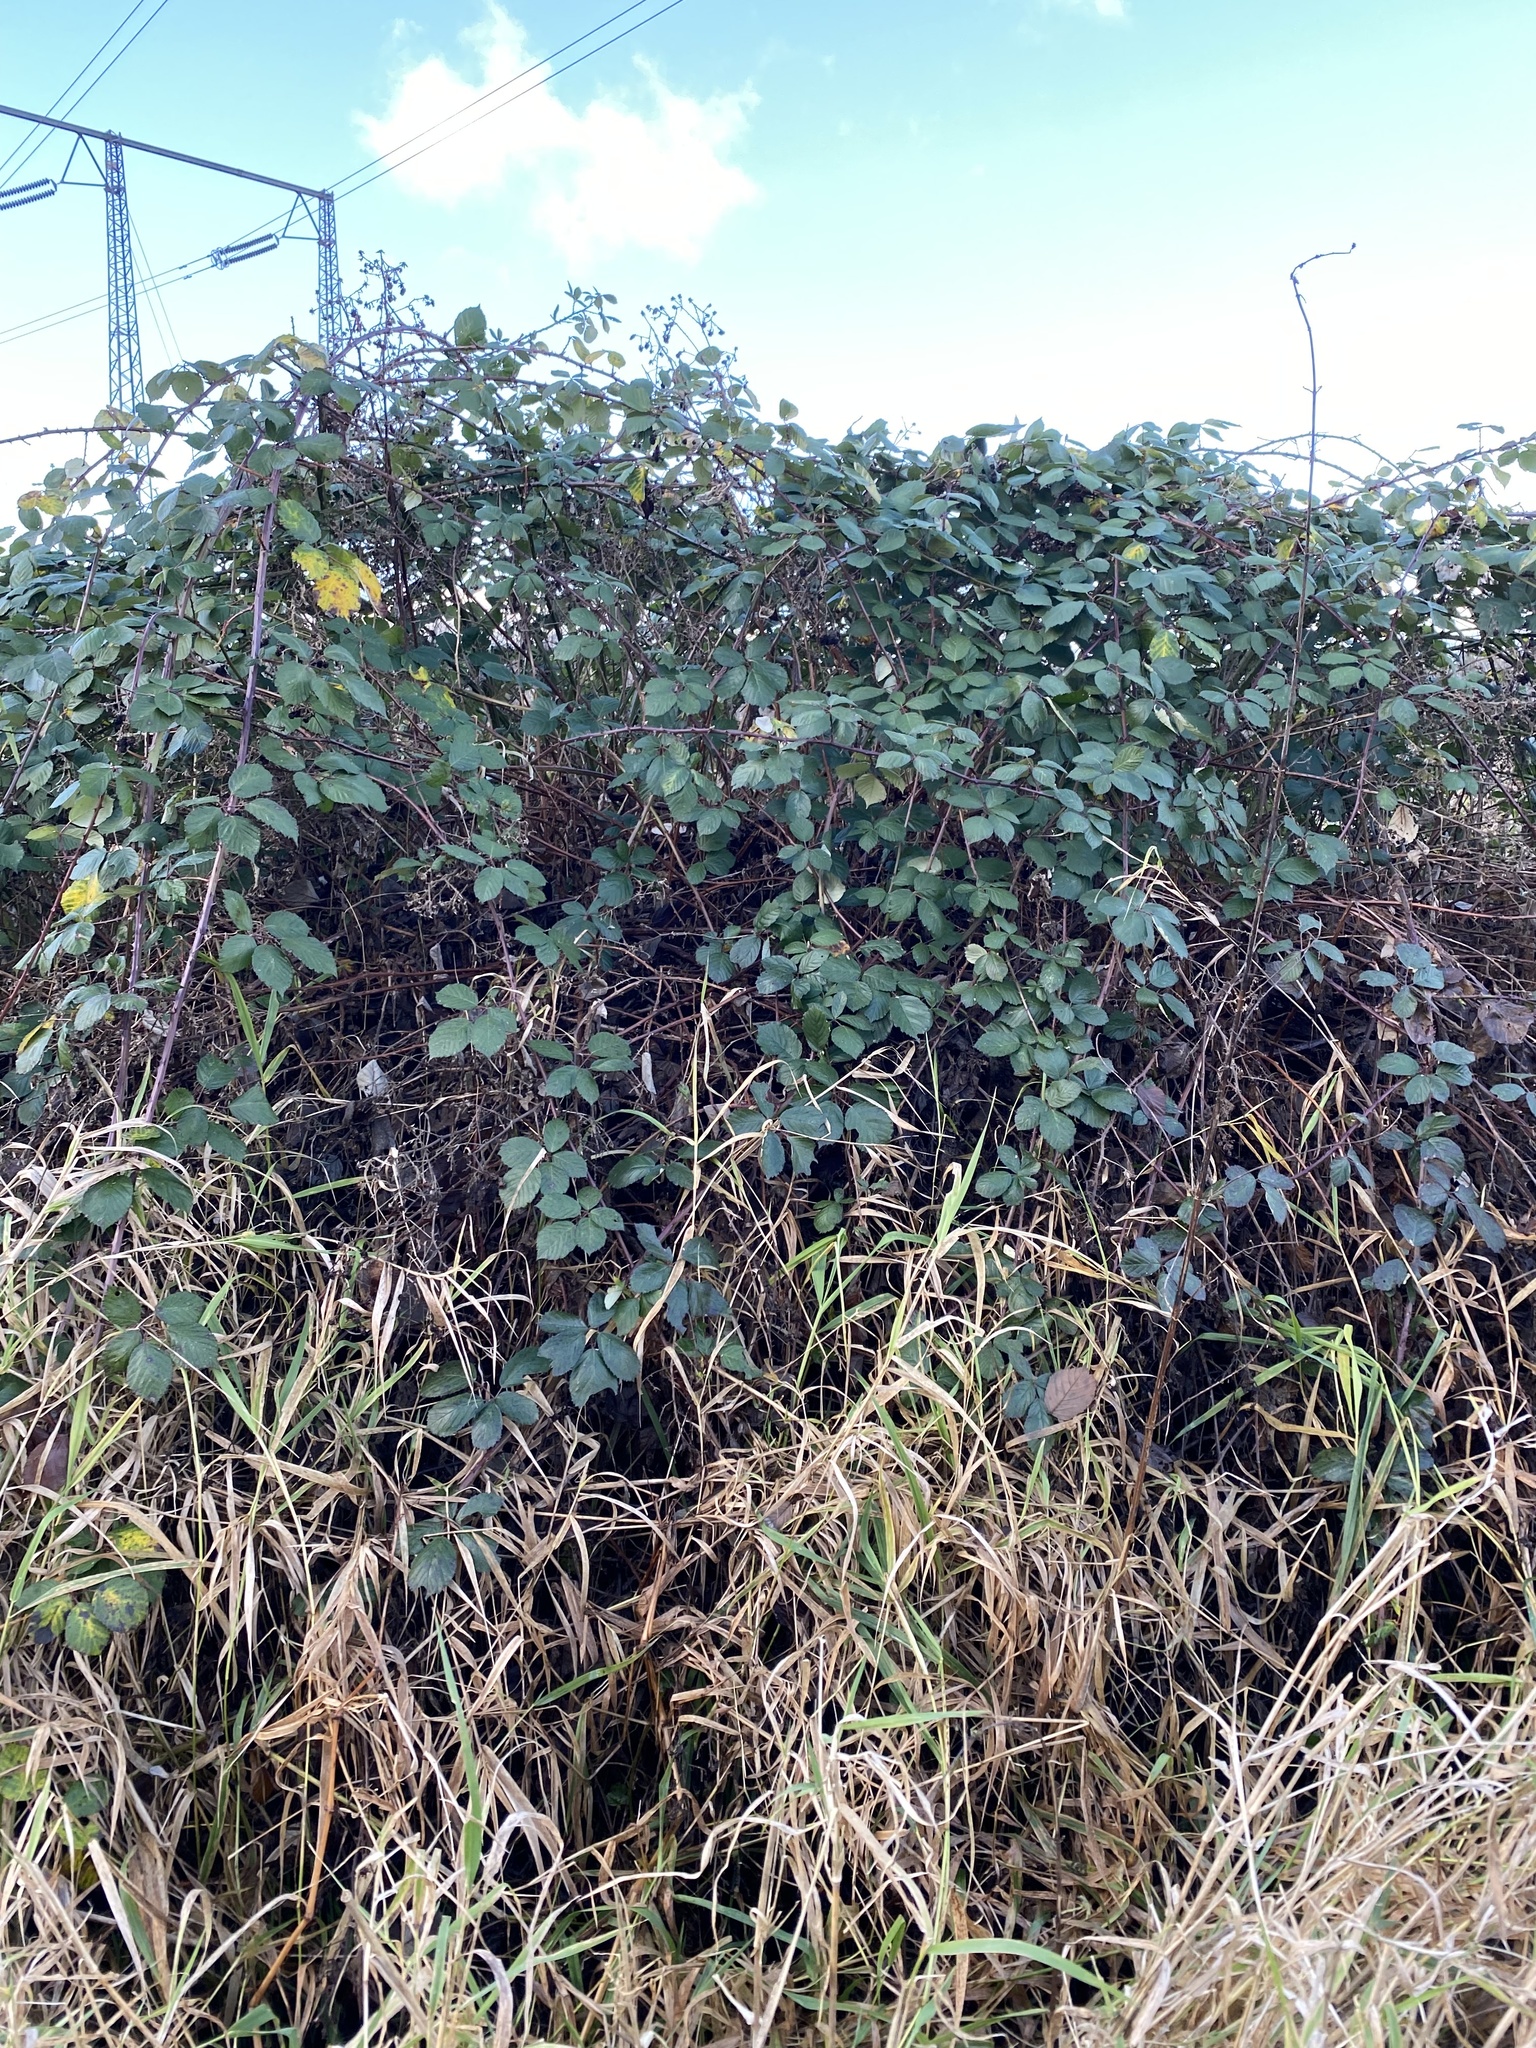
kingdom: Plantae
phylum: Tracheophyta
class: Magnoliopsida
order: Rosales
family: Rosaceae
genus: Rubus
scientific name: Rubus armeniacus
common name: Himalayan blackberry
